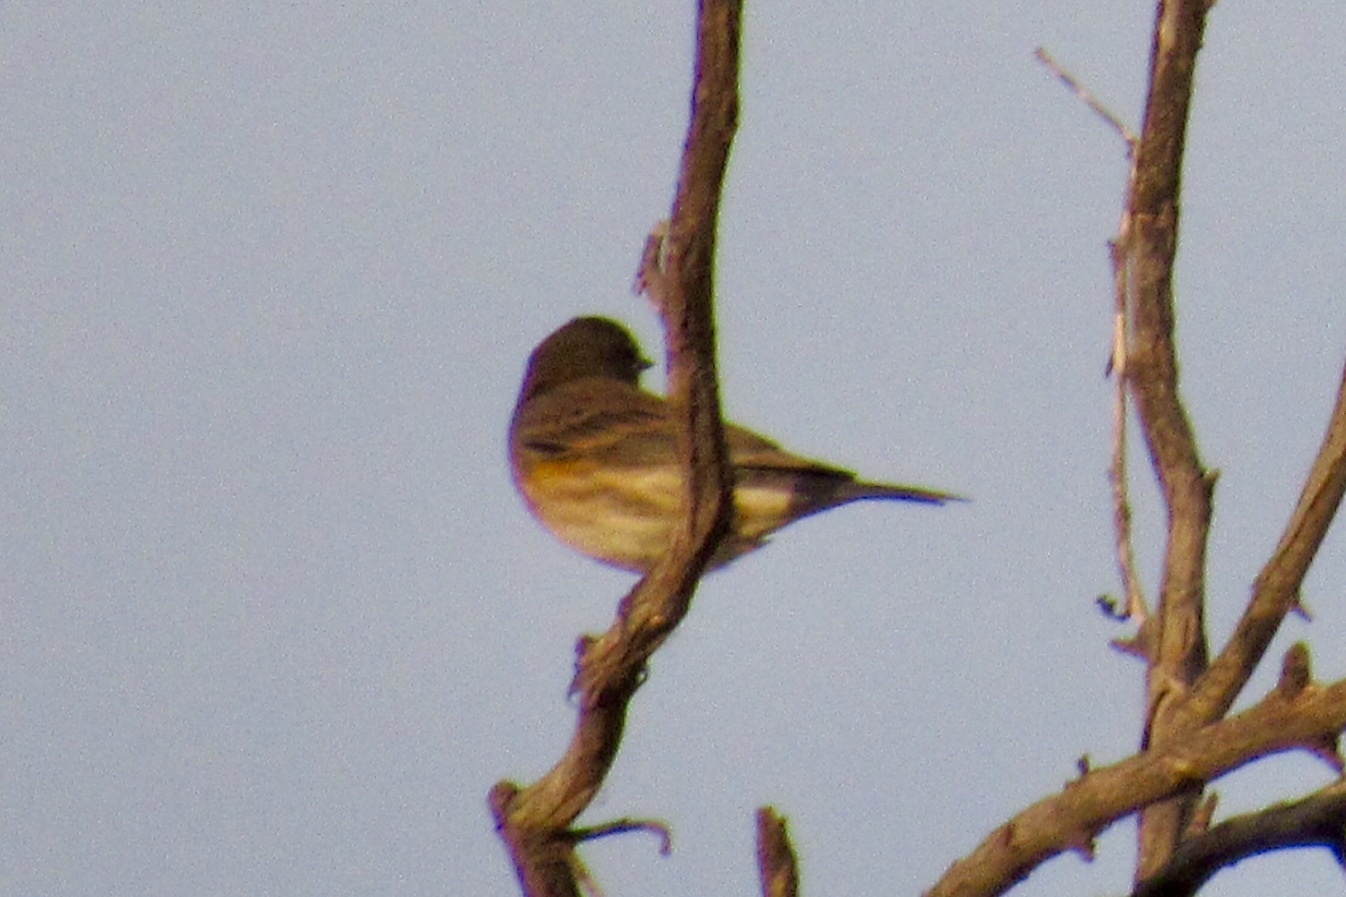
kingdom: Animalia
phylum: Chordata
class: Aves
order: Passeriformes
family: Parulidae
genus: Setophaga
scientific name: Setophaga coronata
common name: Myrtle warbler
